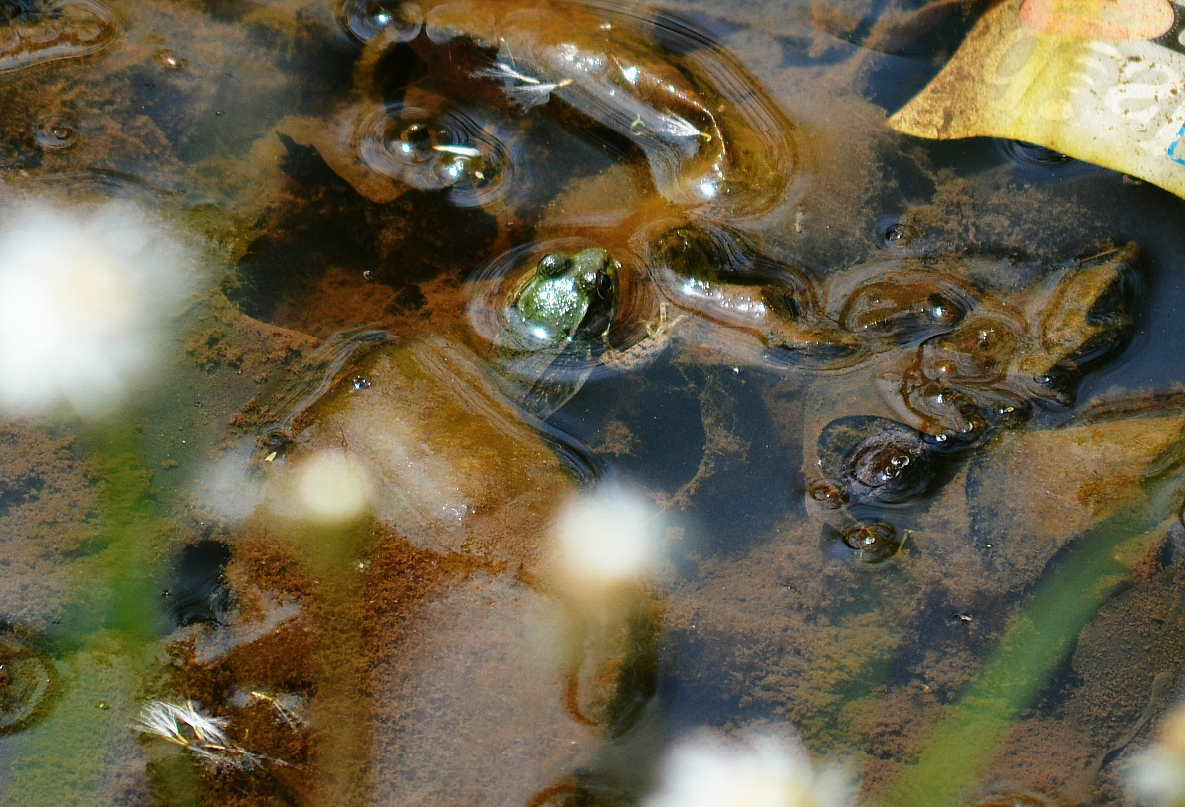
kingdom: Animalia
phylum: Chordata
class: Amphibia
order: Anura
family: Ranidae
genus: Lithobates
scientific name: Lithobates clamitans
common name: Green frog
